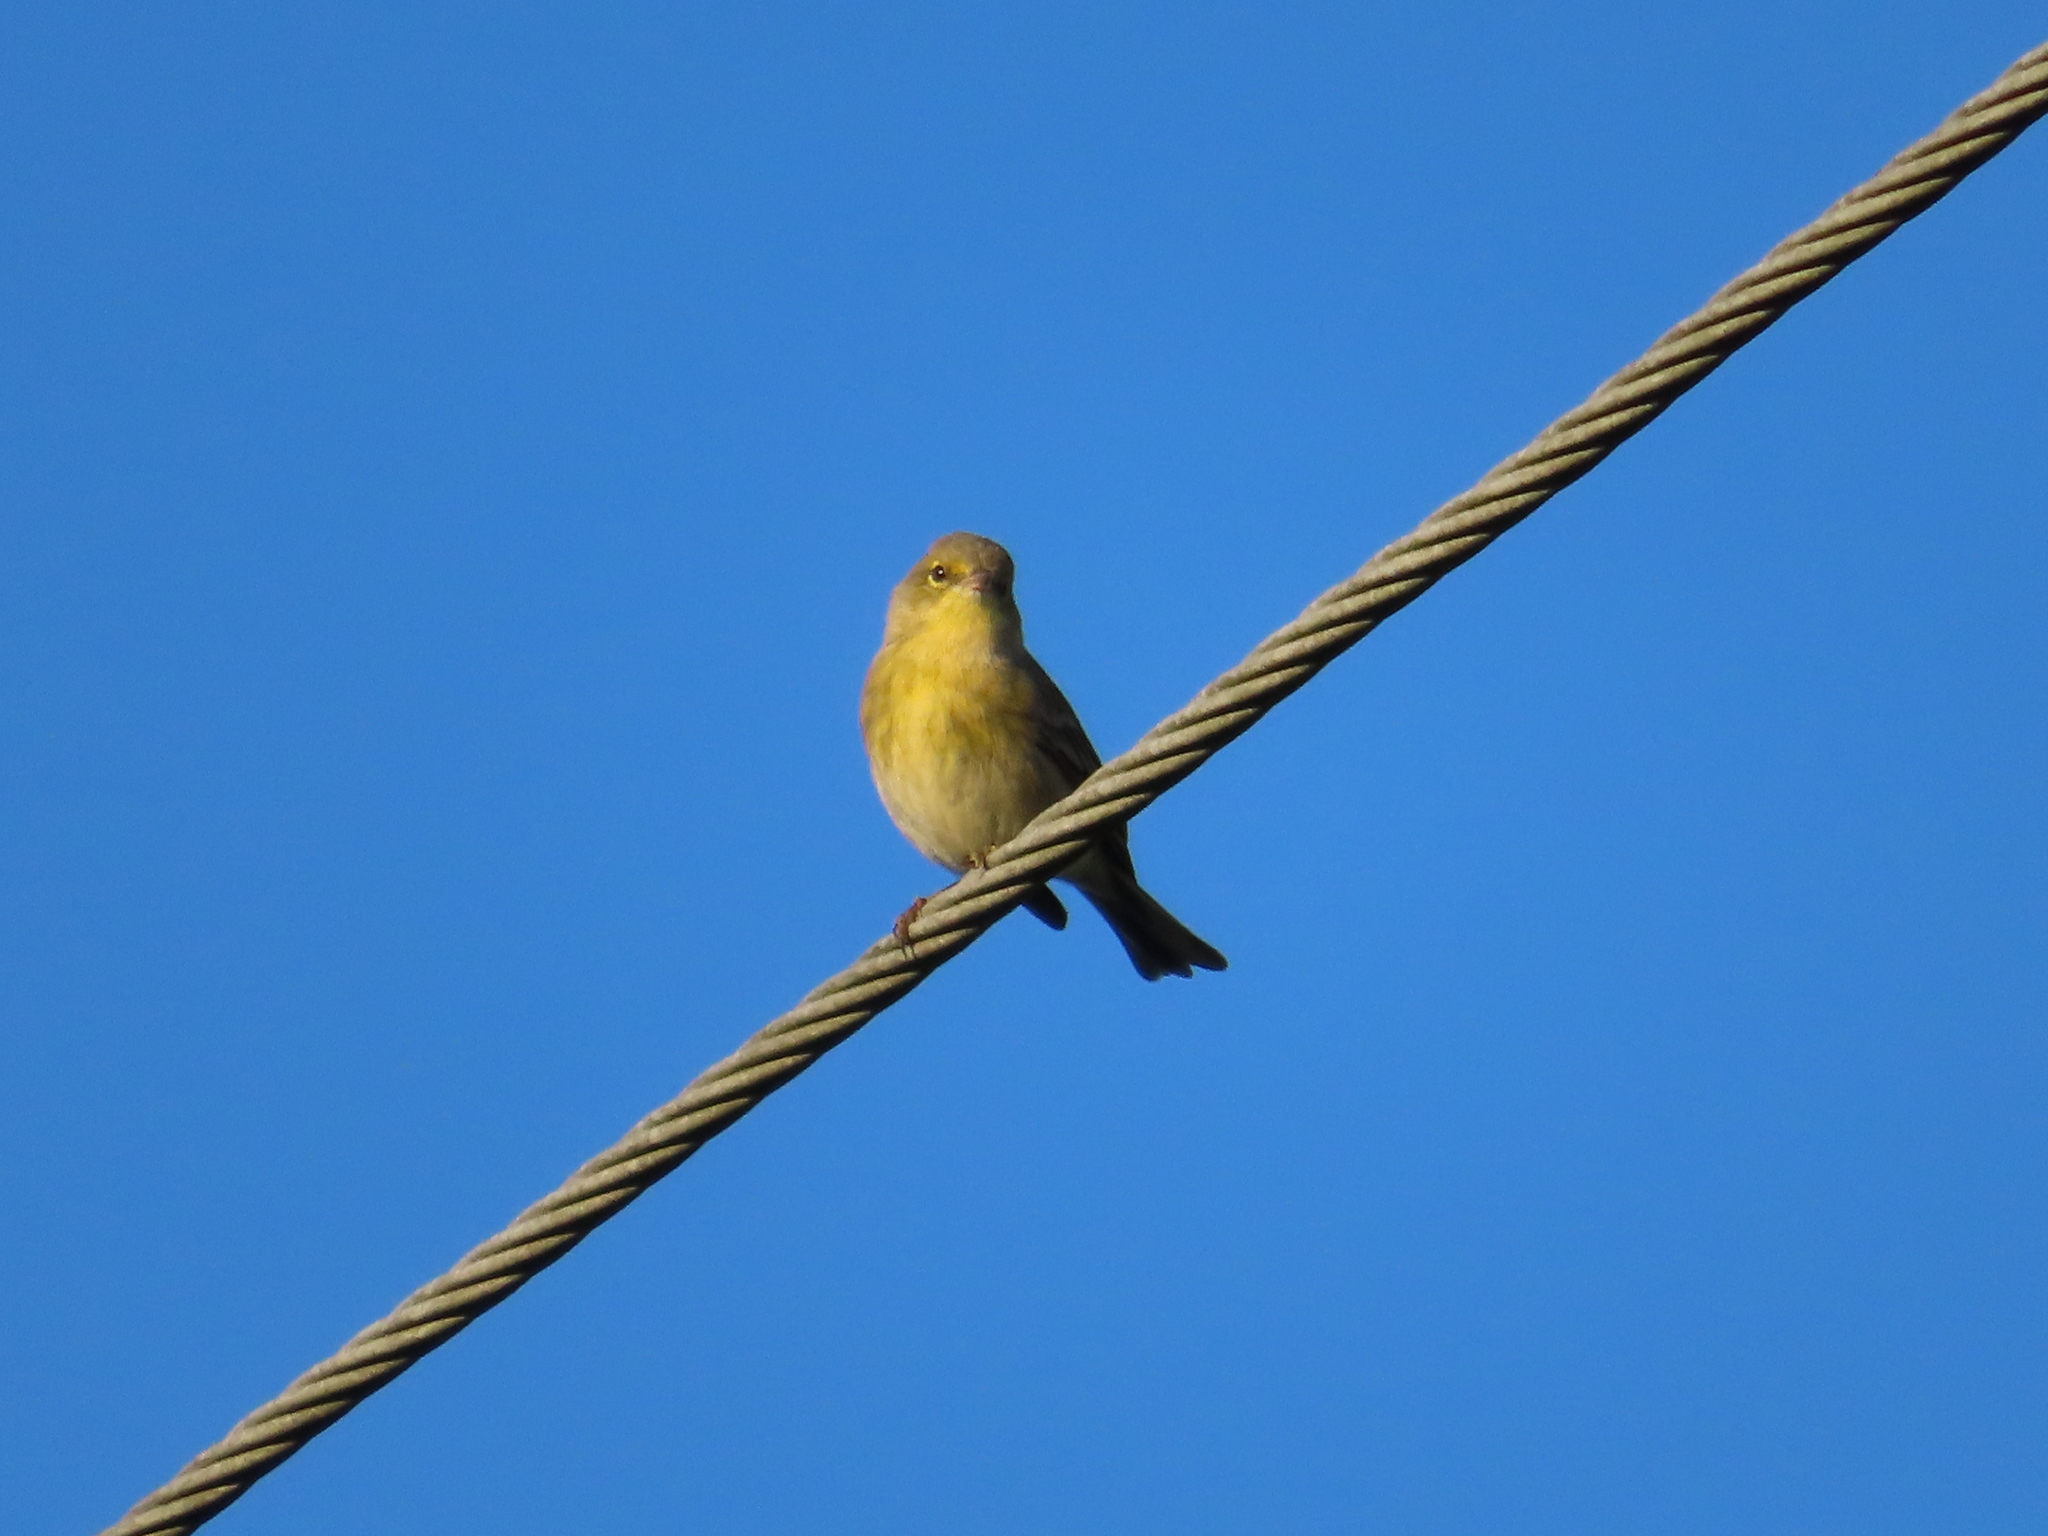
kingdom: Animalia
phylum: Chordata
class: Aves
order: Passeriformes
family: Parulidae
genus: Setophaga
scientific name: Setophaga pinus
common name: Pine warbler
